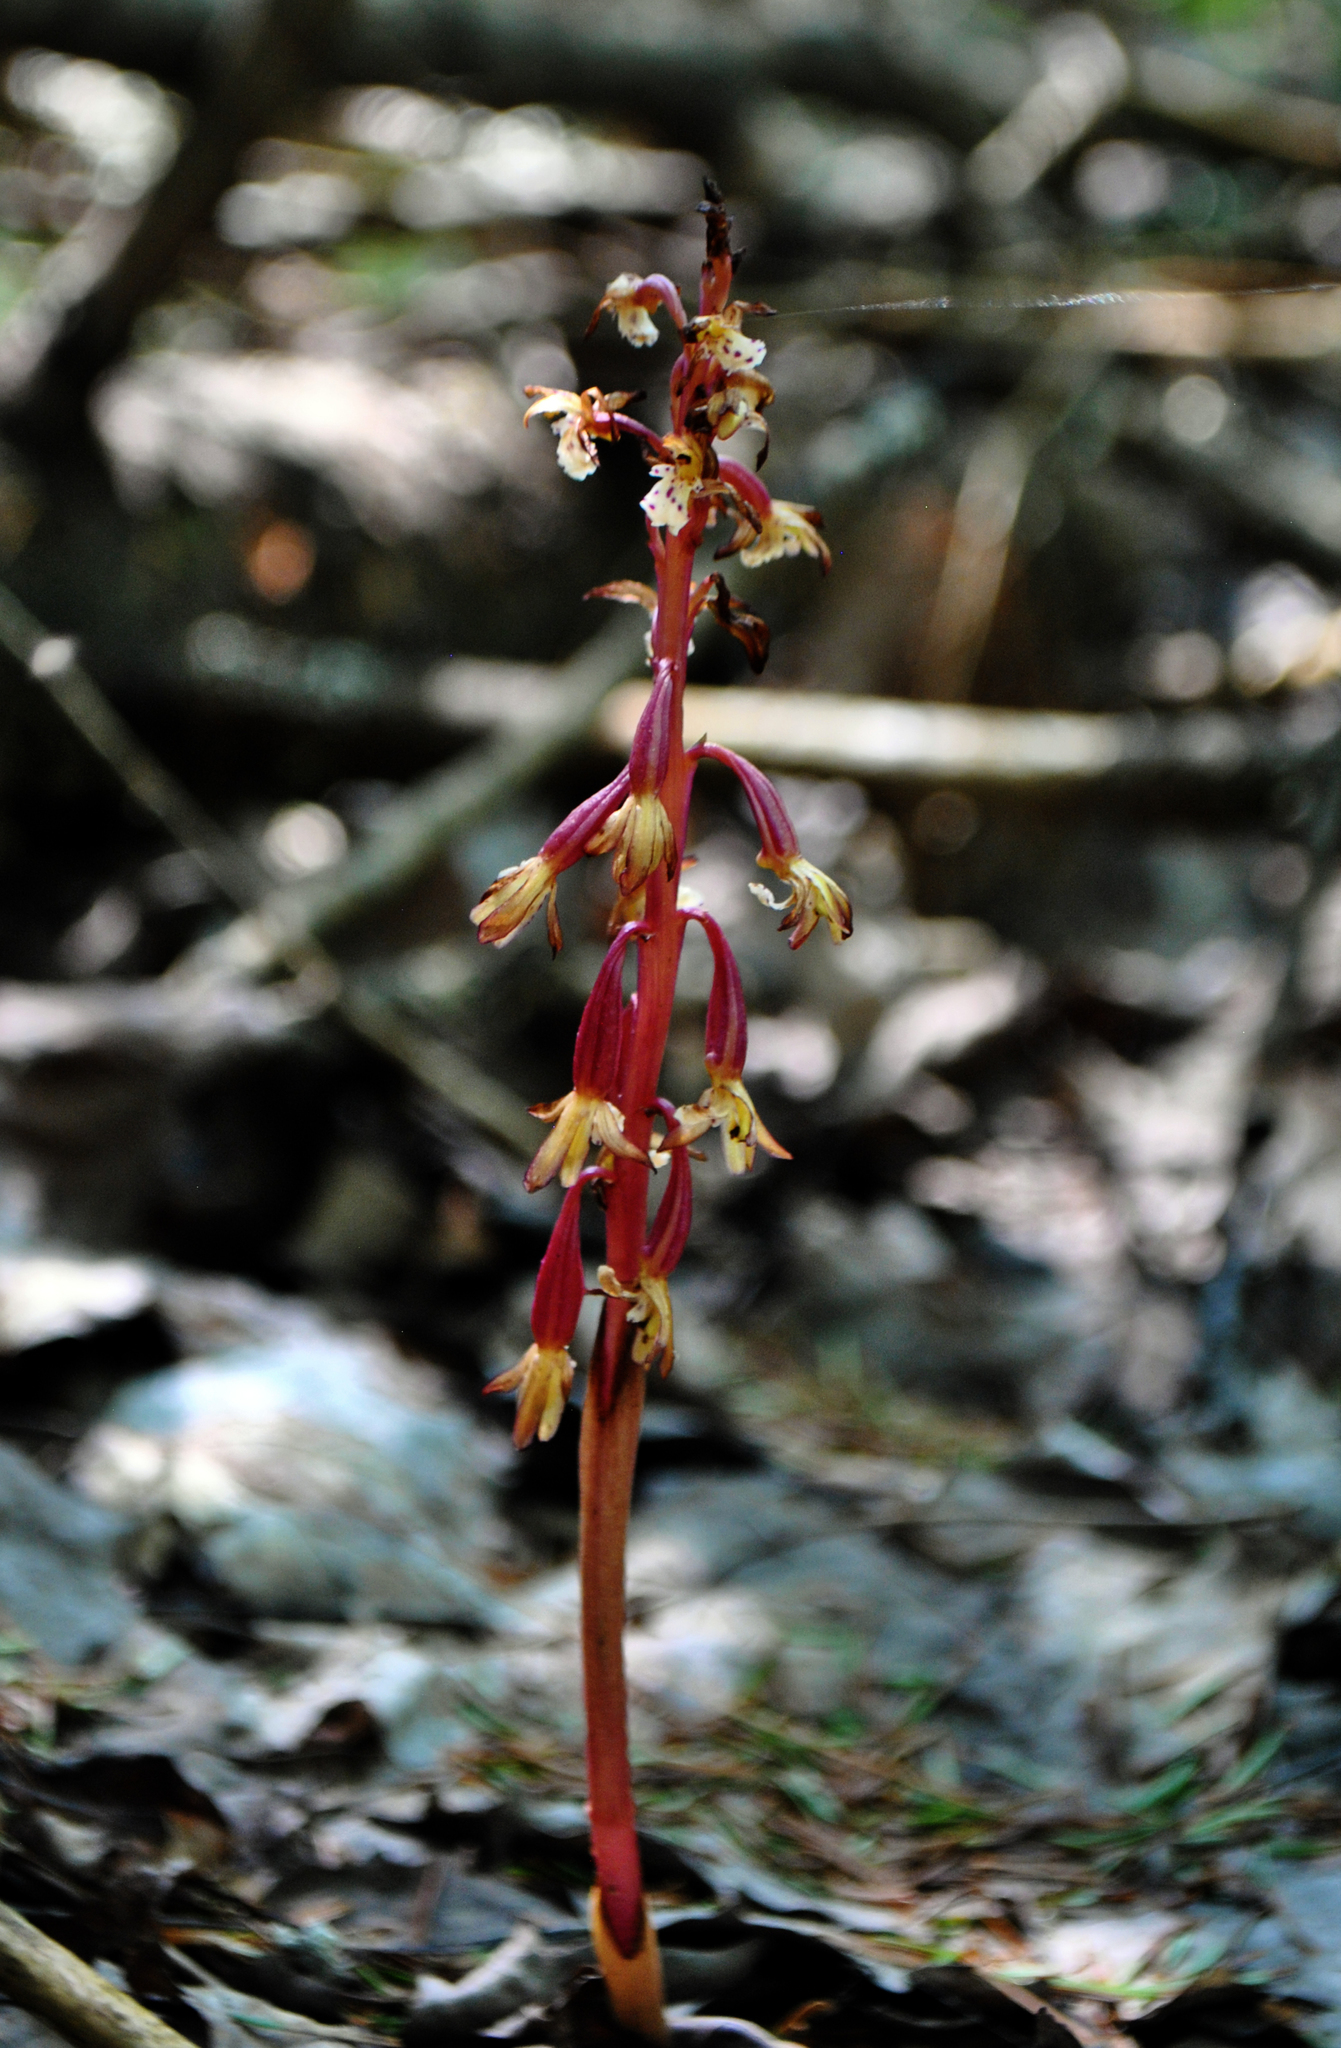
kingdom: Plantae
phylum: Tracheophyta
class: Liliopsida
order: Asparagales
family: Orchidaceae
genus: Corallorhiza
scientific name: Corallorhiza maculata
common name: Spotted coralroot
